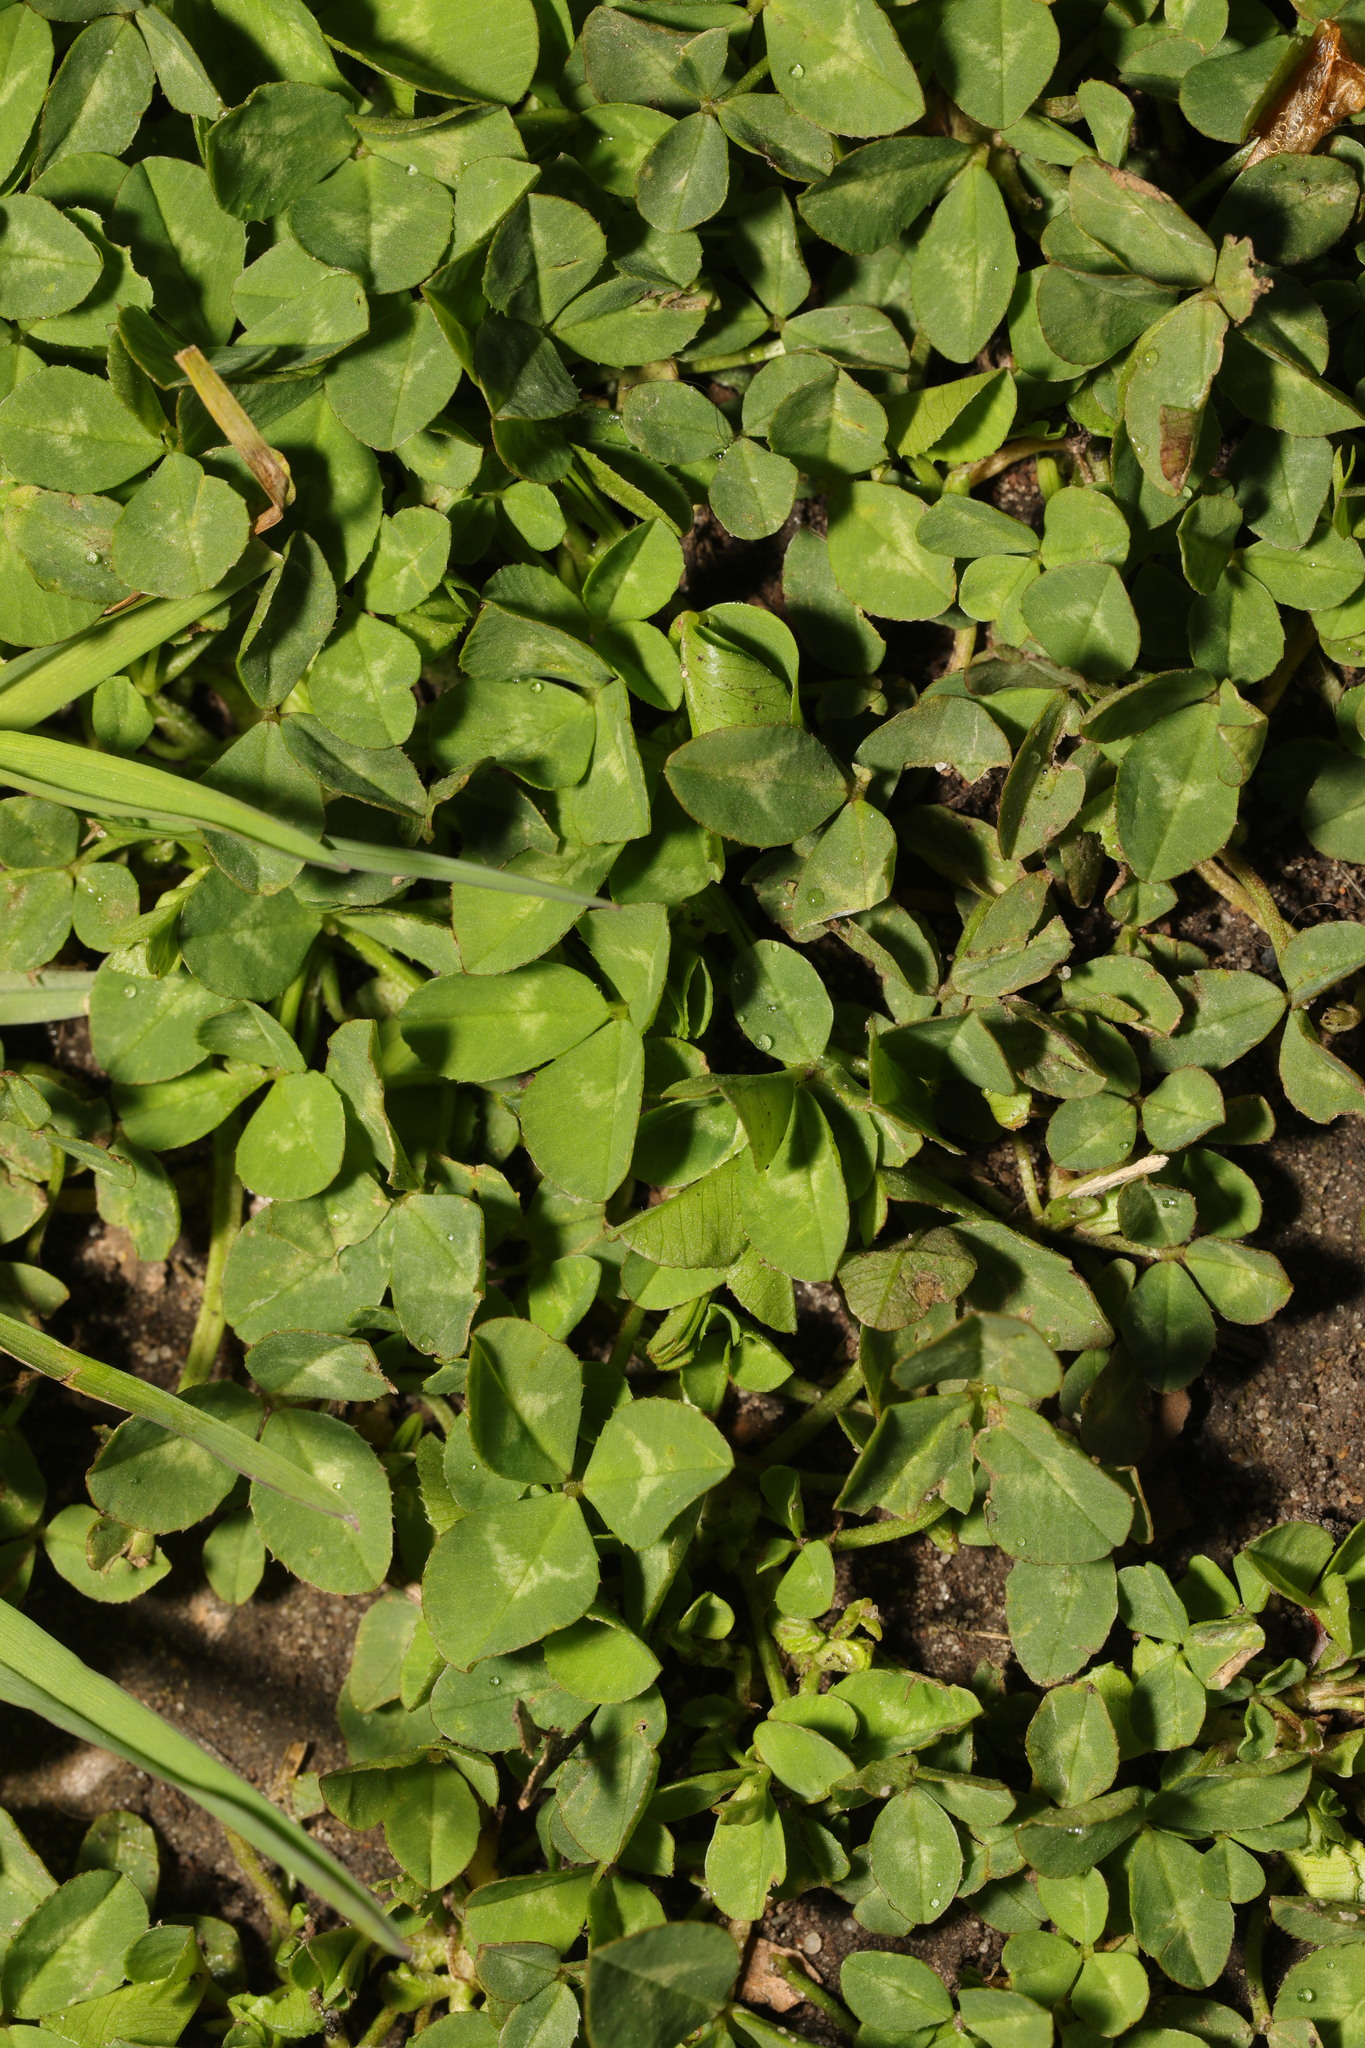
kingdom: Plantae
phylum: Tracheophyta
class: Magnoliopsida
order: Fabales
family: Fabaceae
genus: Trifolium
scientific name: Trifolium repens
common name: White clover
